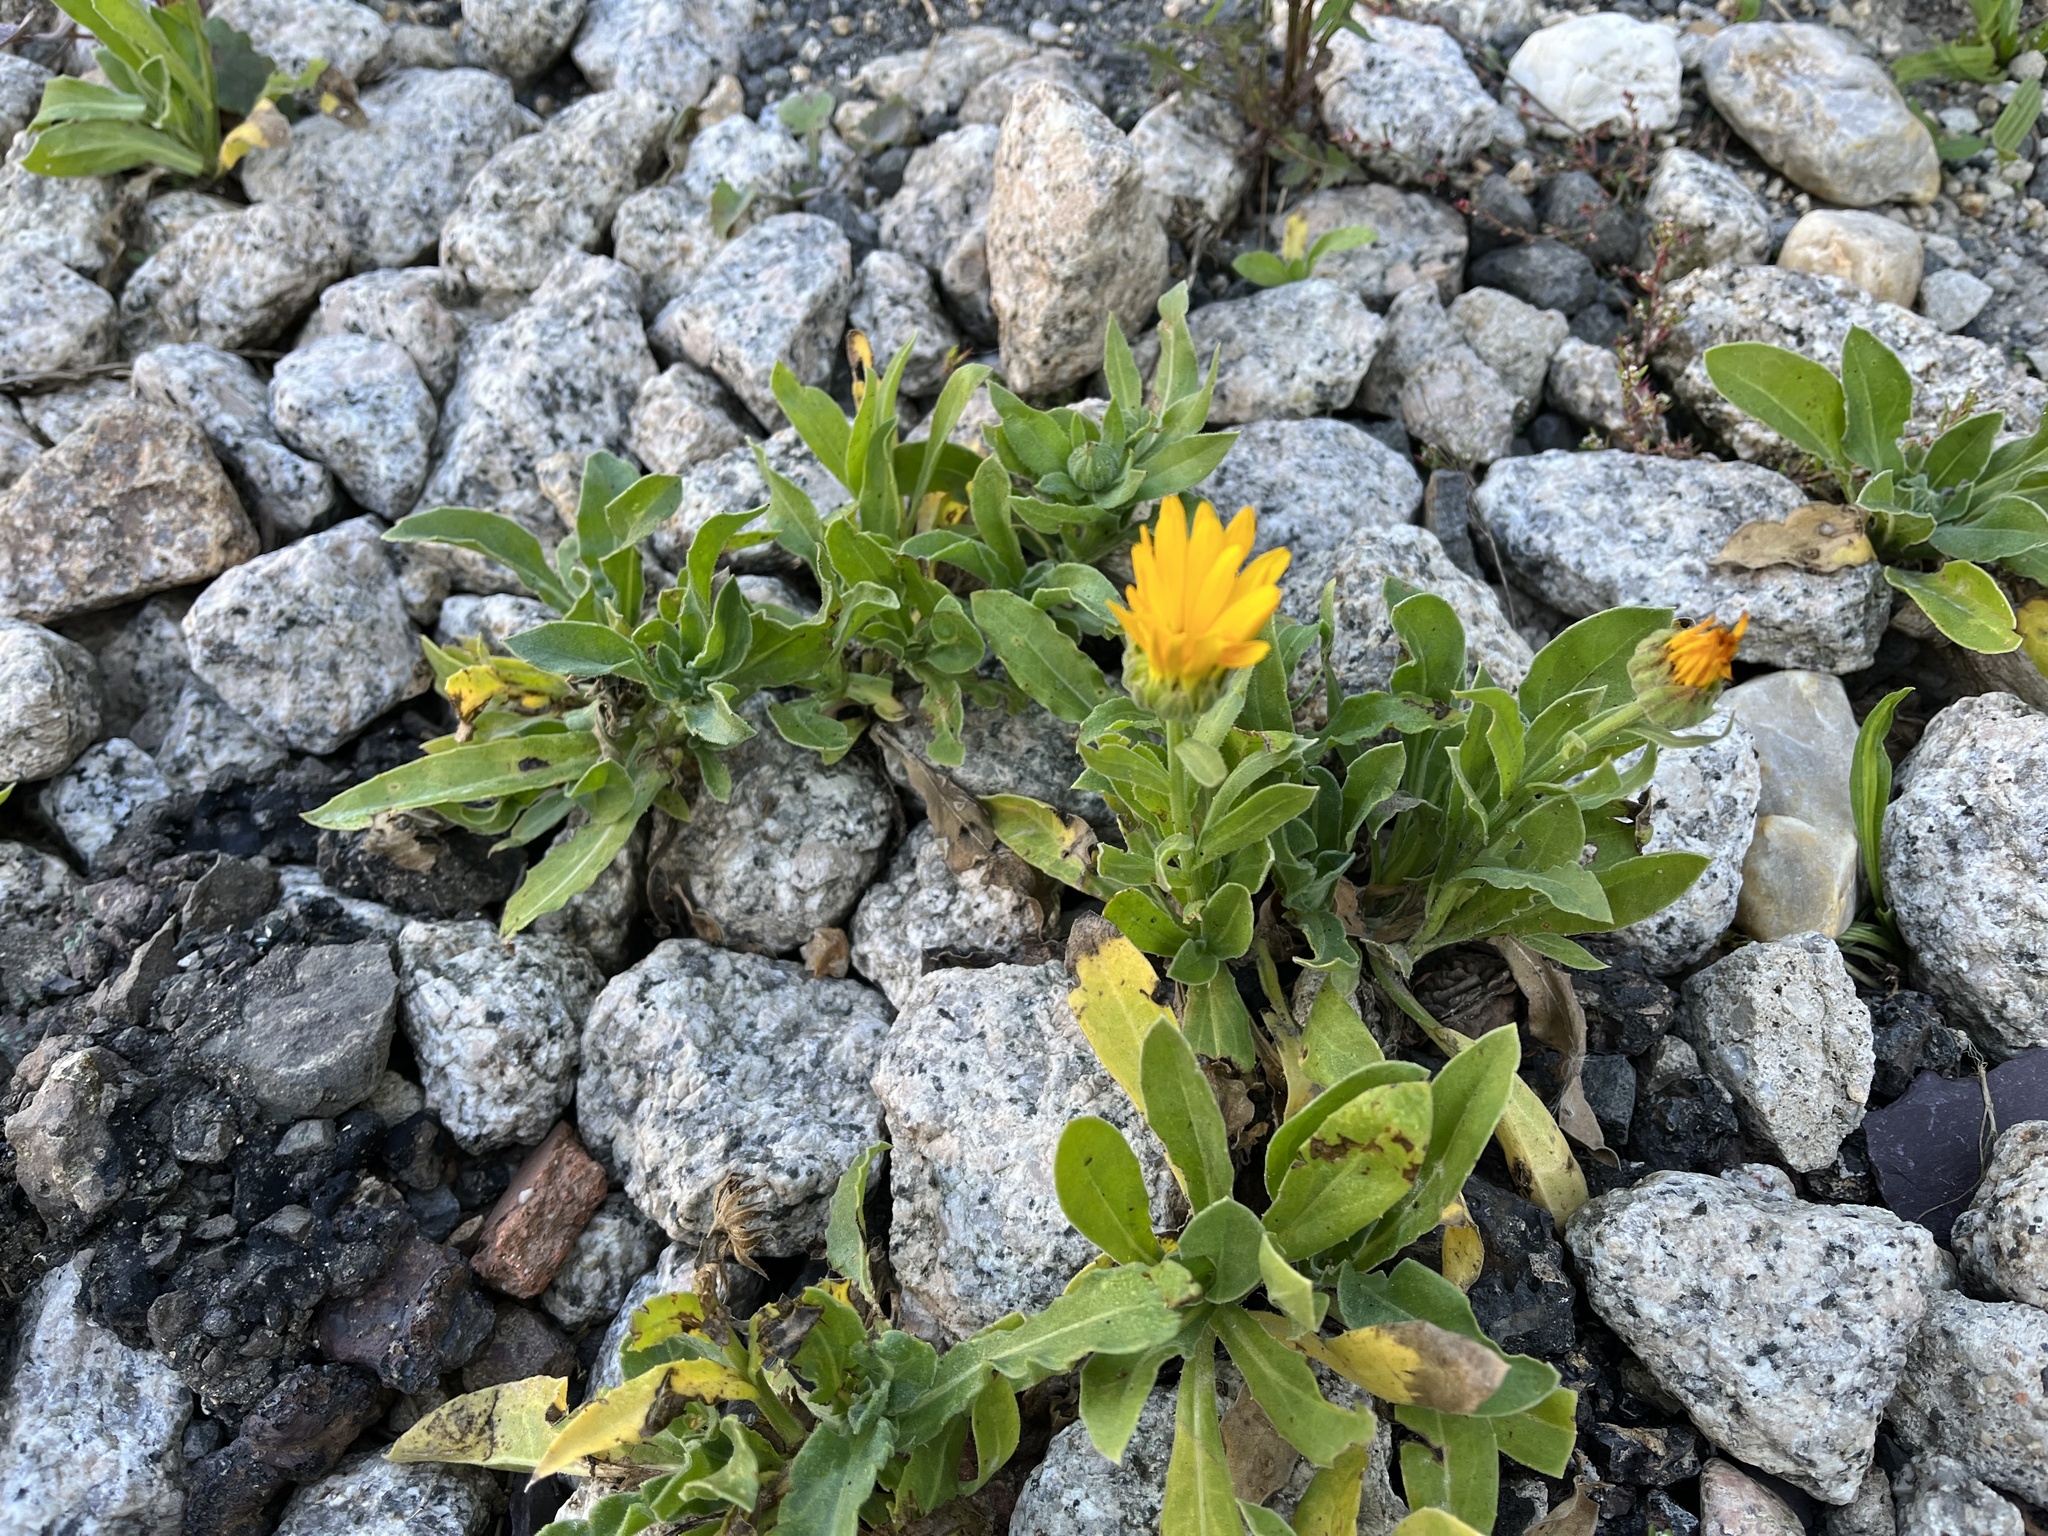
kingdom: Plantae
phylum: Tracheophyta
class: Magnoliopsida
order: Asterales
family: Asteraceae
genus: Calendula
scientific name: Calendula officinalis
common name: Pot marigold
